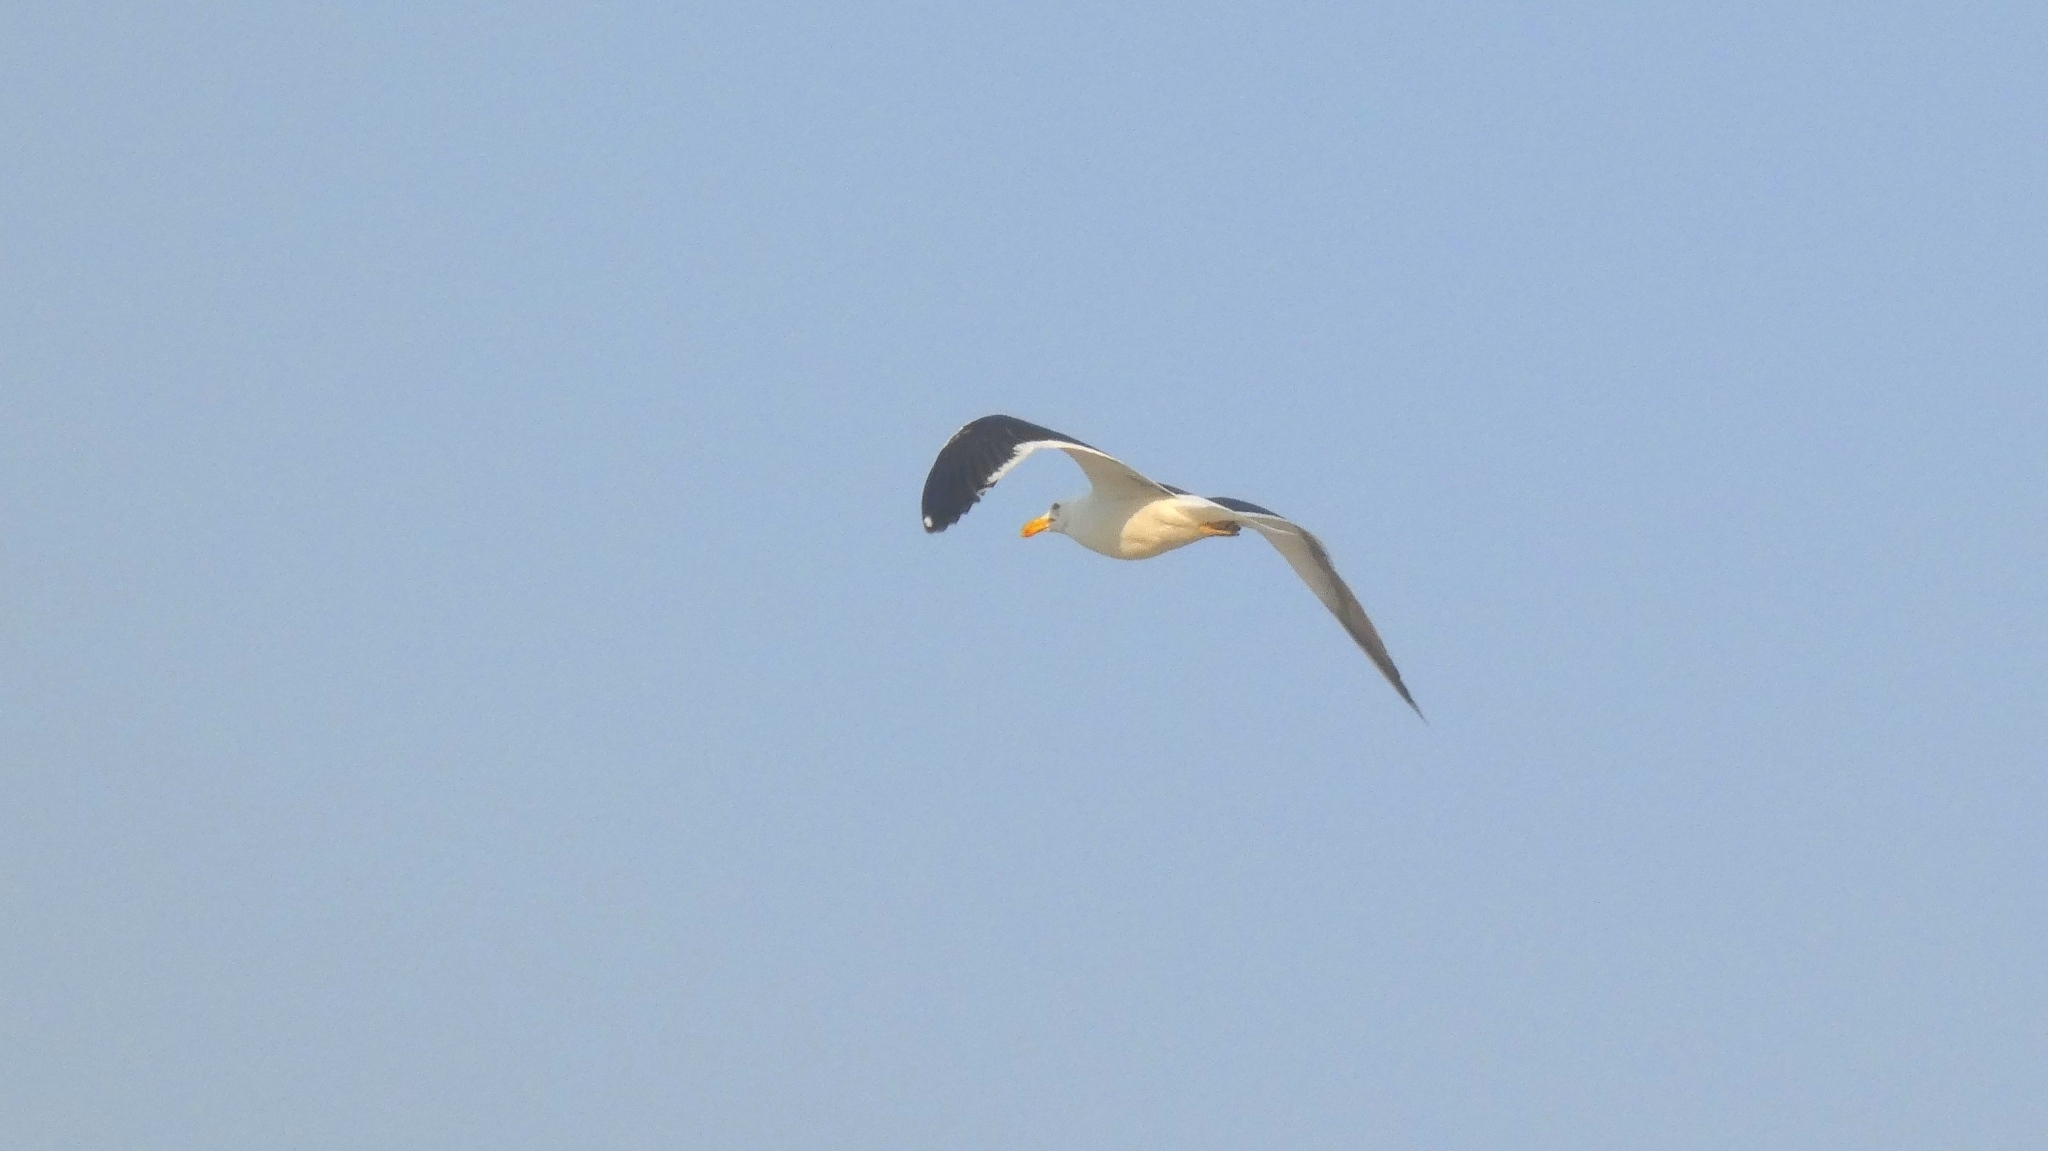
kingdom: Animalia
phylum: Chordata
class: Aves
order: Charadriiformes
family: Laridae
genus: Larus
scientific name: Larus dominicanus
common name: Kelp gull
